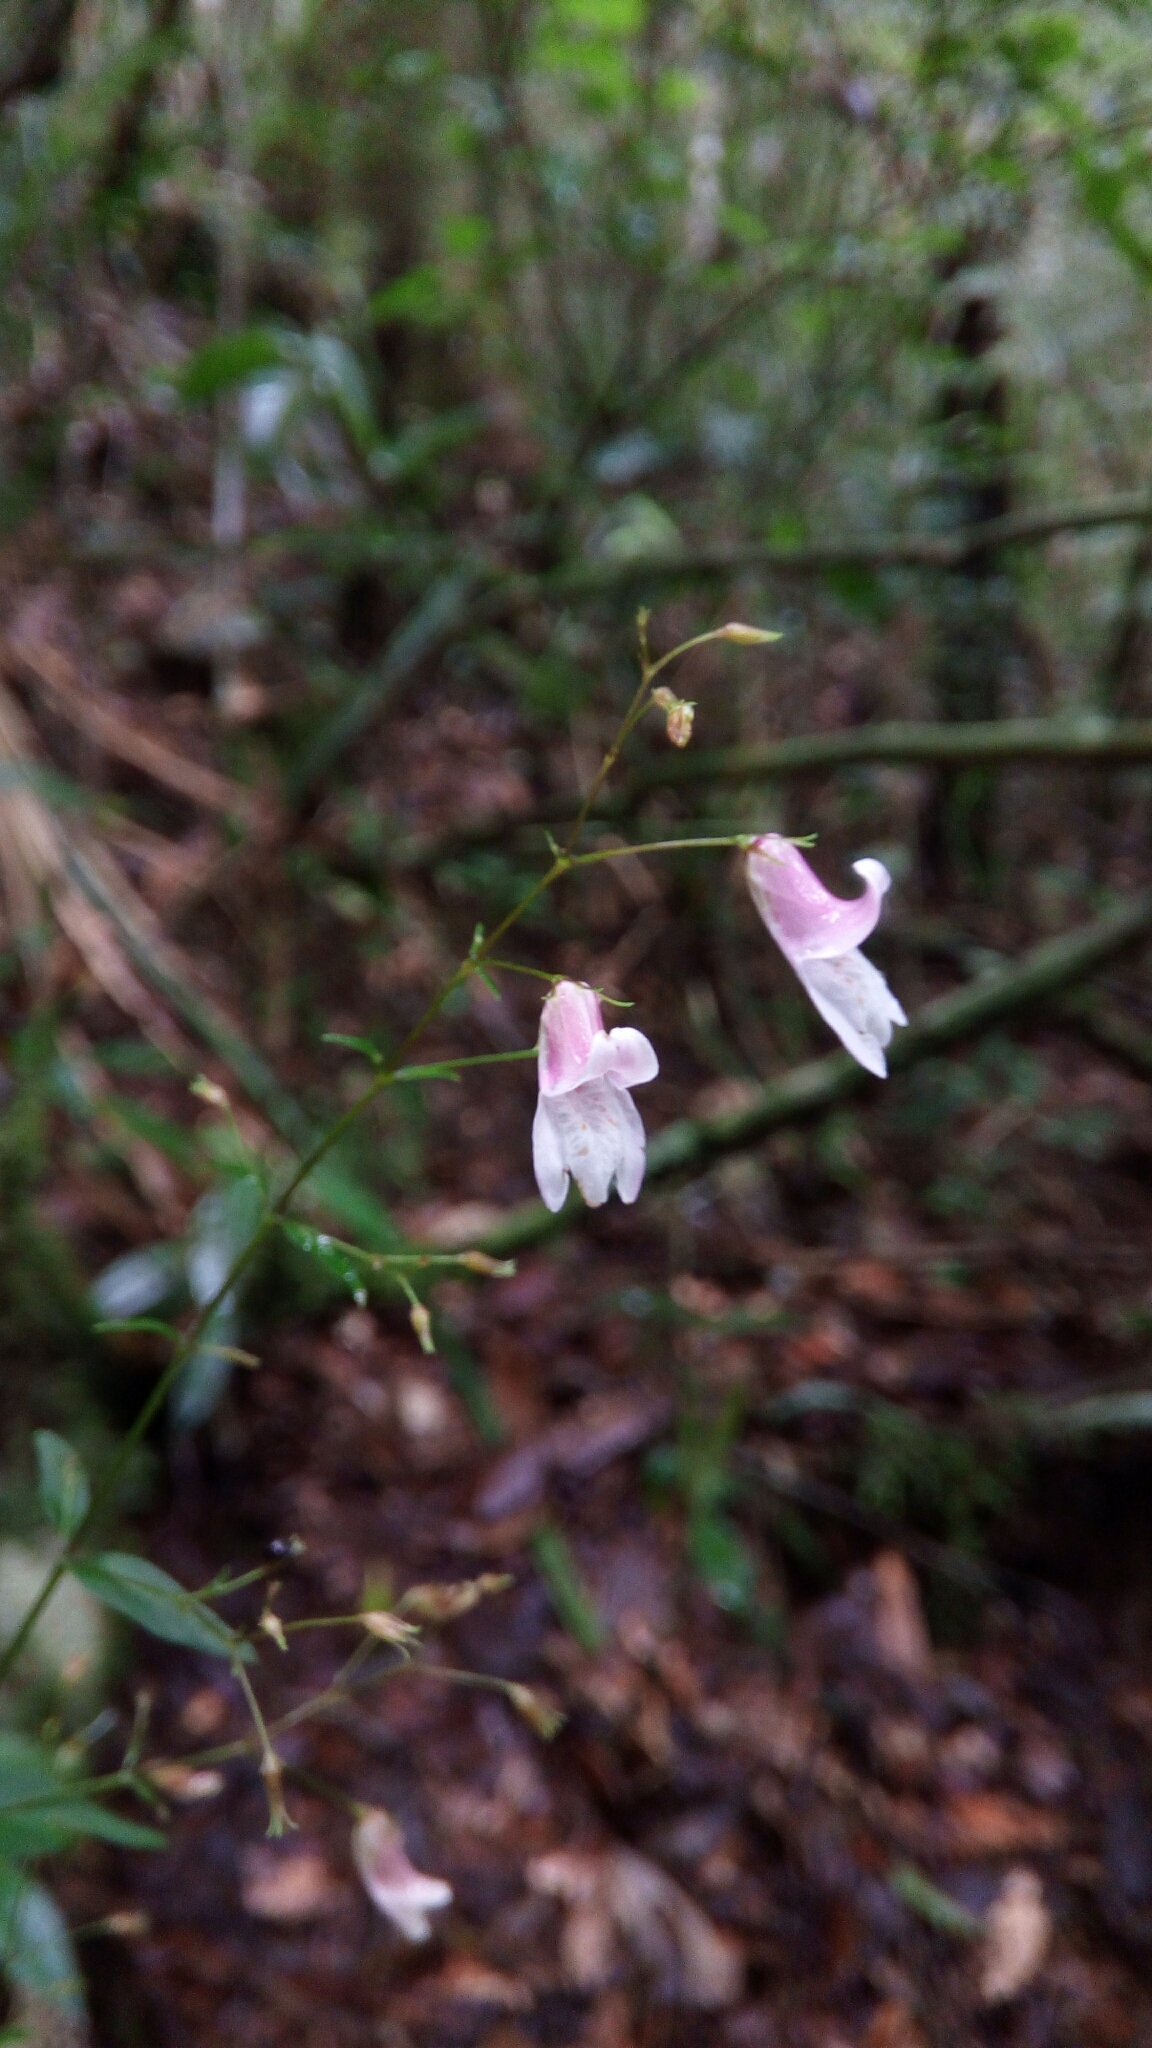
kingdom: Plantae
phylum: Tracheophyta
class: Magnoliopsida
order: Lamiales
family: Acanthaceae
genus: Isoglossa
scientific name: Isoglossa gracillima
